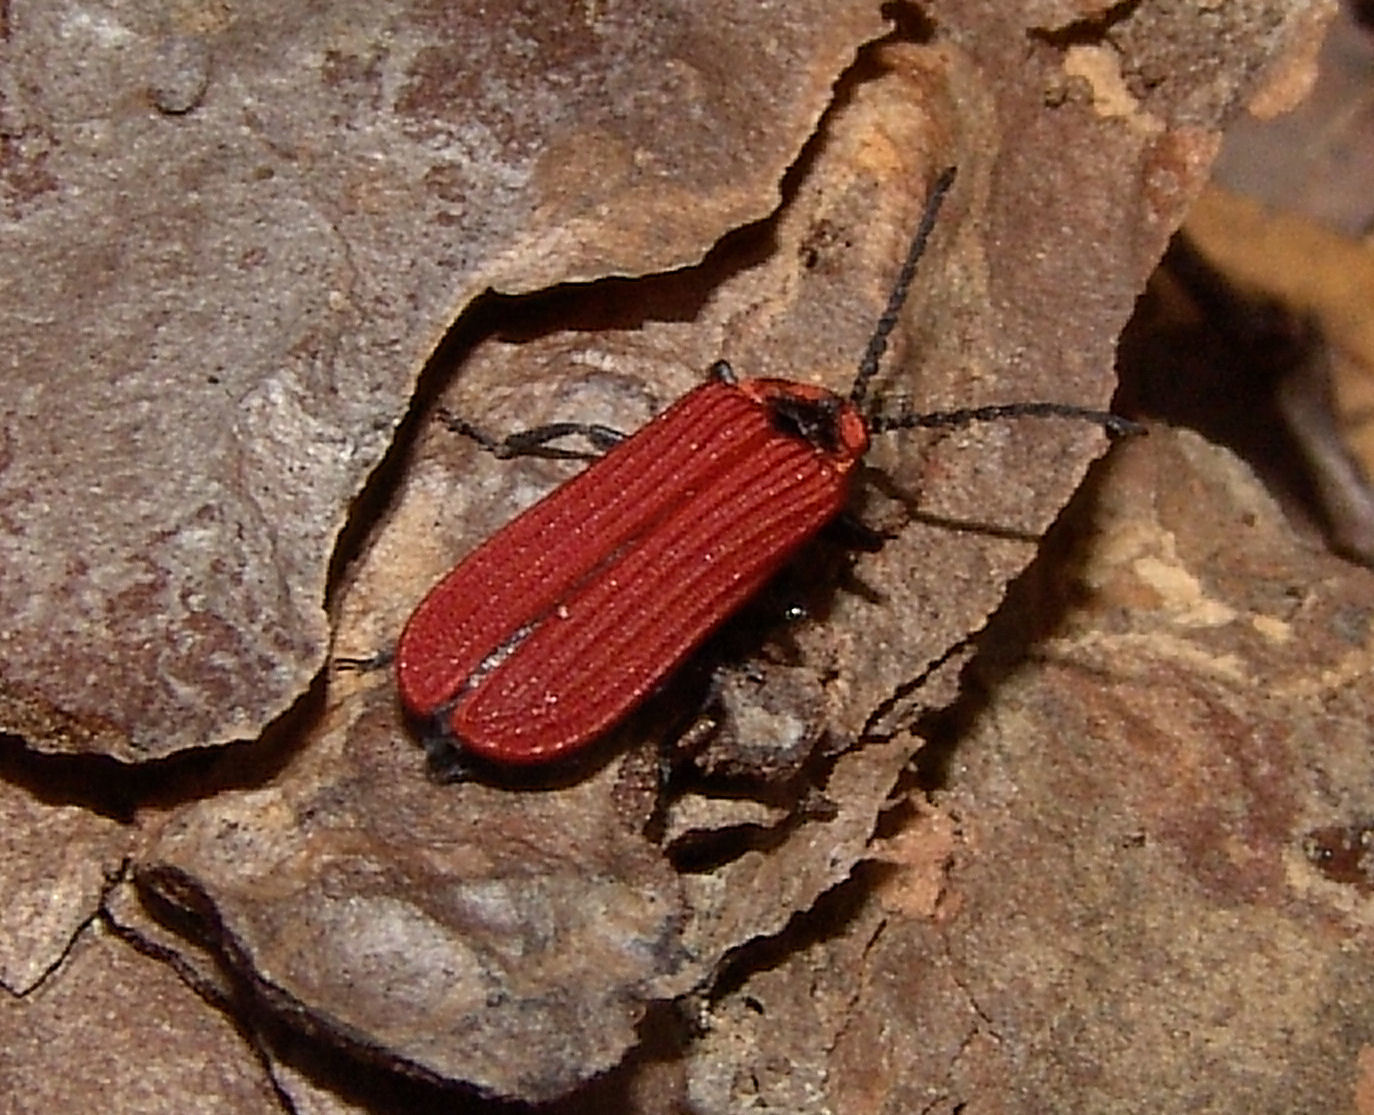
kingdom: Animalia
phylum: Arthropoda
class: Insecta
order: Coleoptera
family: Lycidae
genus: Dictyoptera
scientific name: Dictyoptera aurora
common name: Golden net-winged beetle
